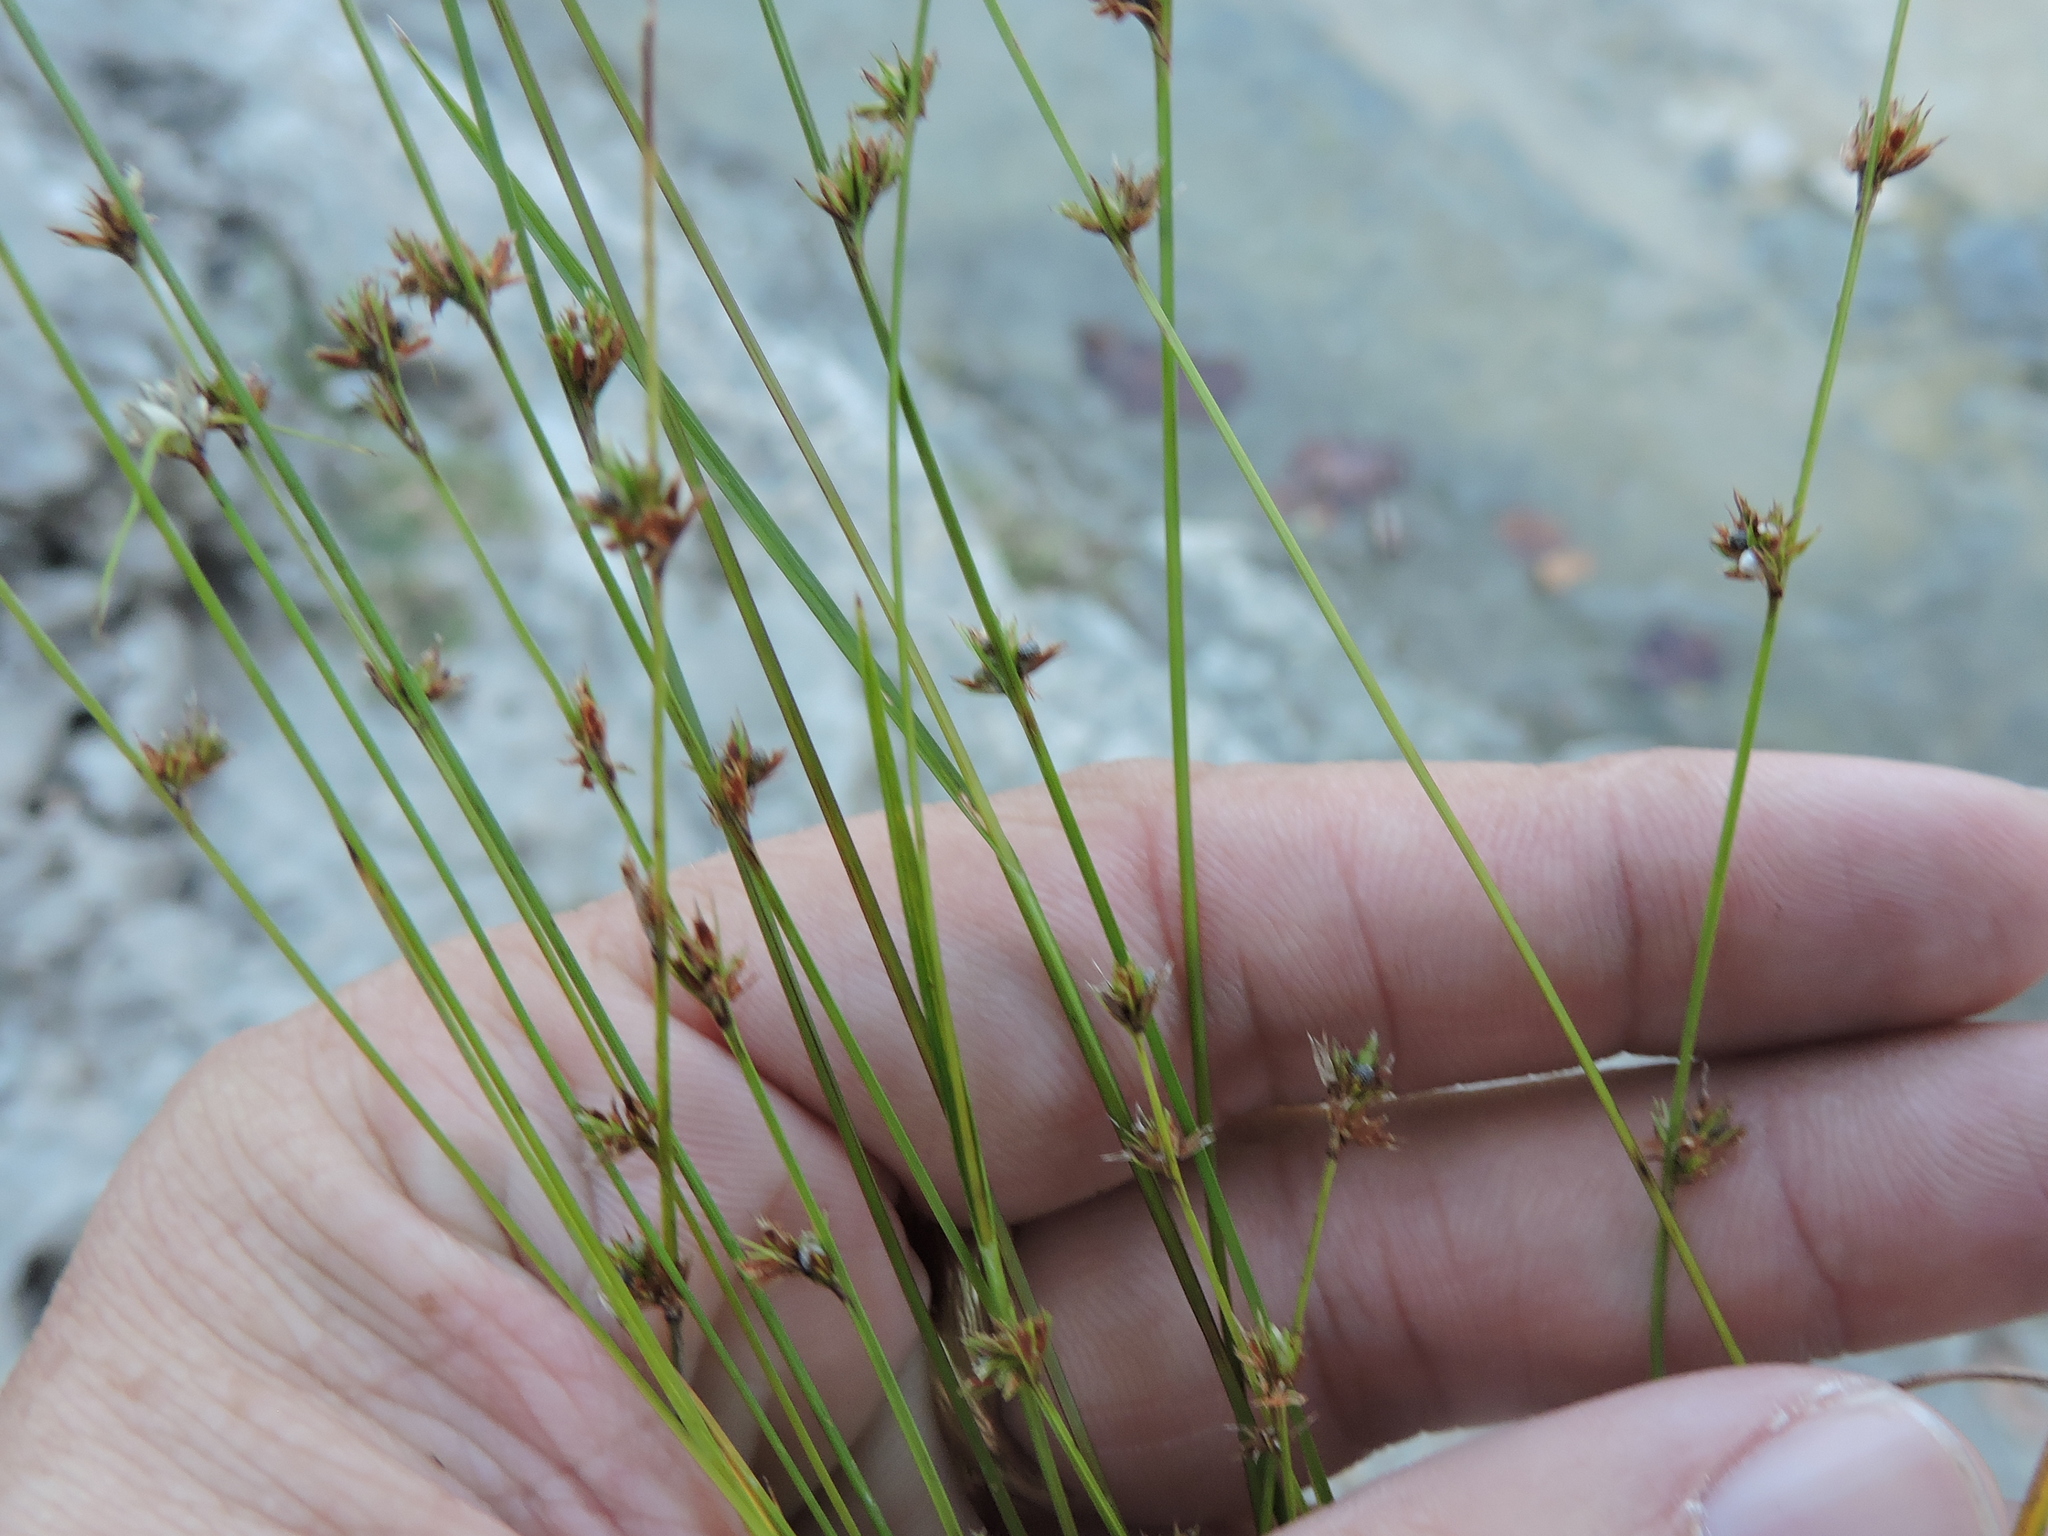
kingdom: Plantae
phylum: Tracheophyta
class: Liliopsida
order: Poales
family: Cyperaceae
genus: Scleria
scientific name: Scleria verticillata
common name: Low nutrush
